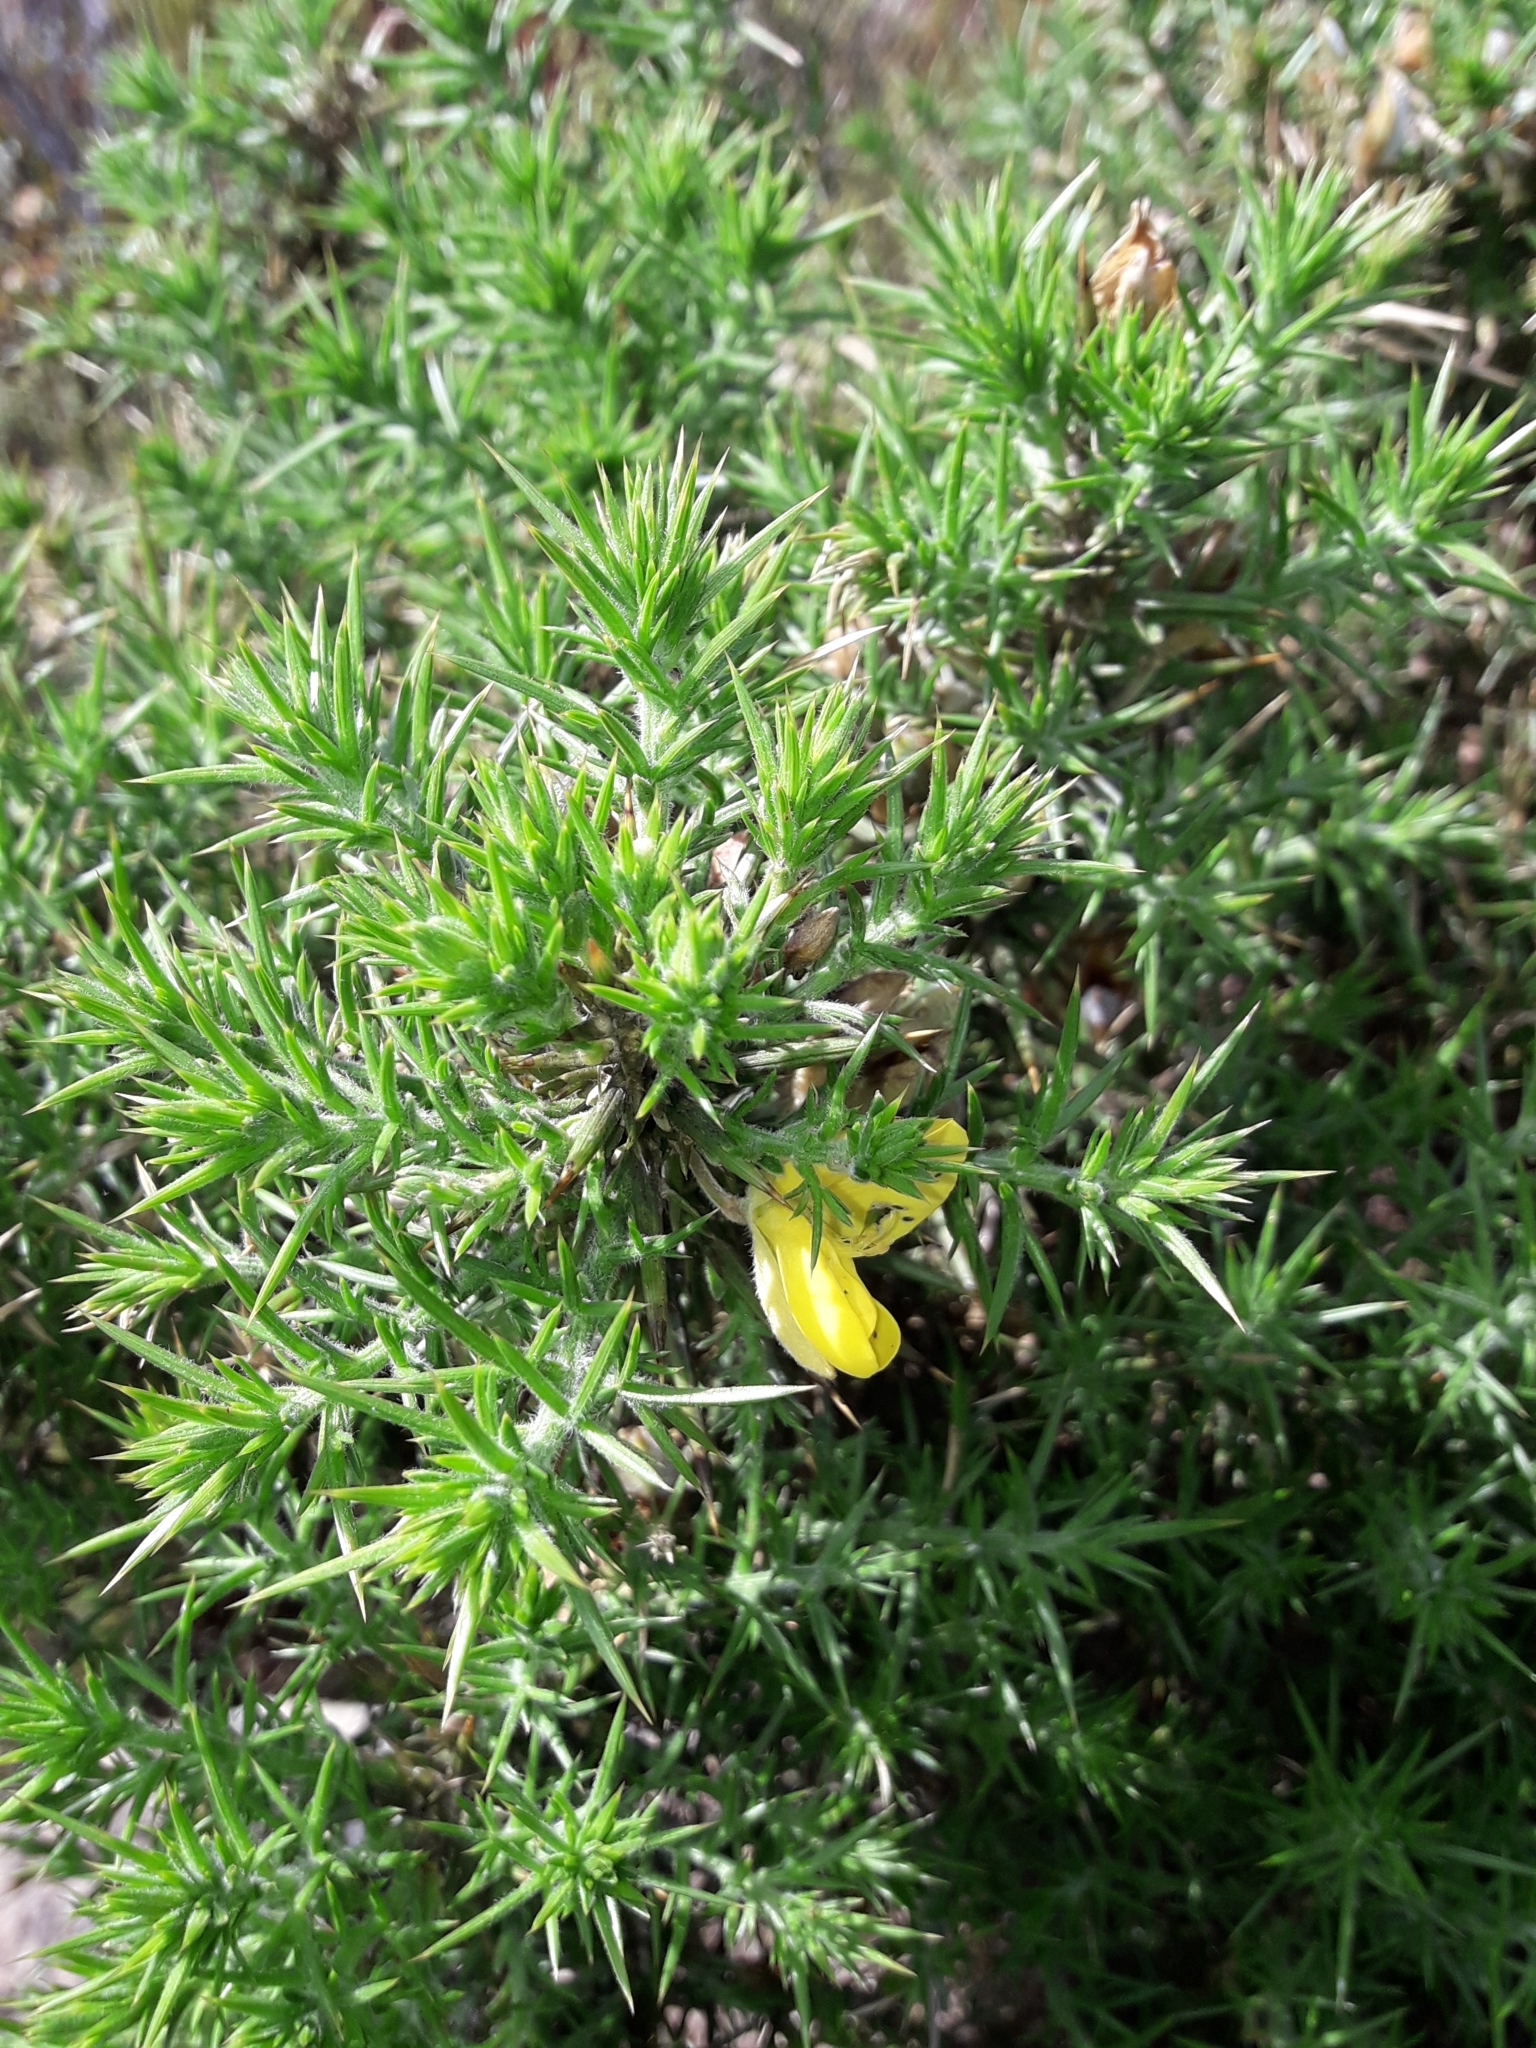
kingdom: Plantae
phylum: Tracheophyta
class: Magnoliopsida
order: Fabales
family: Fabaceae
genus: Ulex
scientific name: Ulex europaeus
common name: Common gorse
